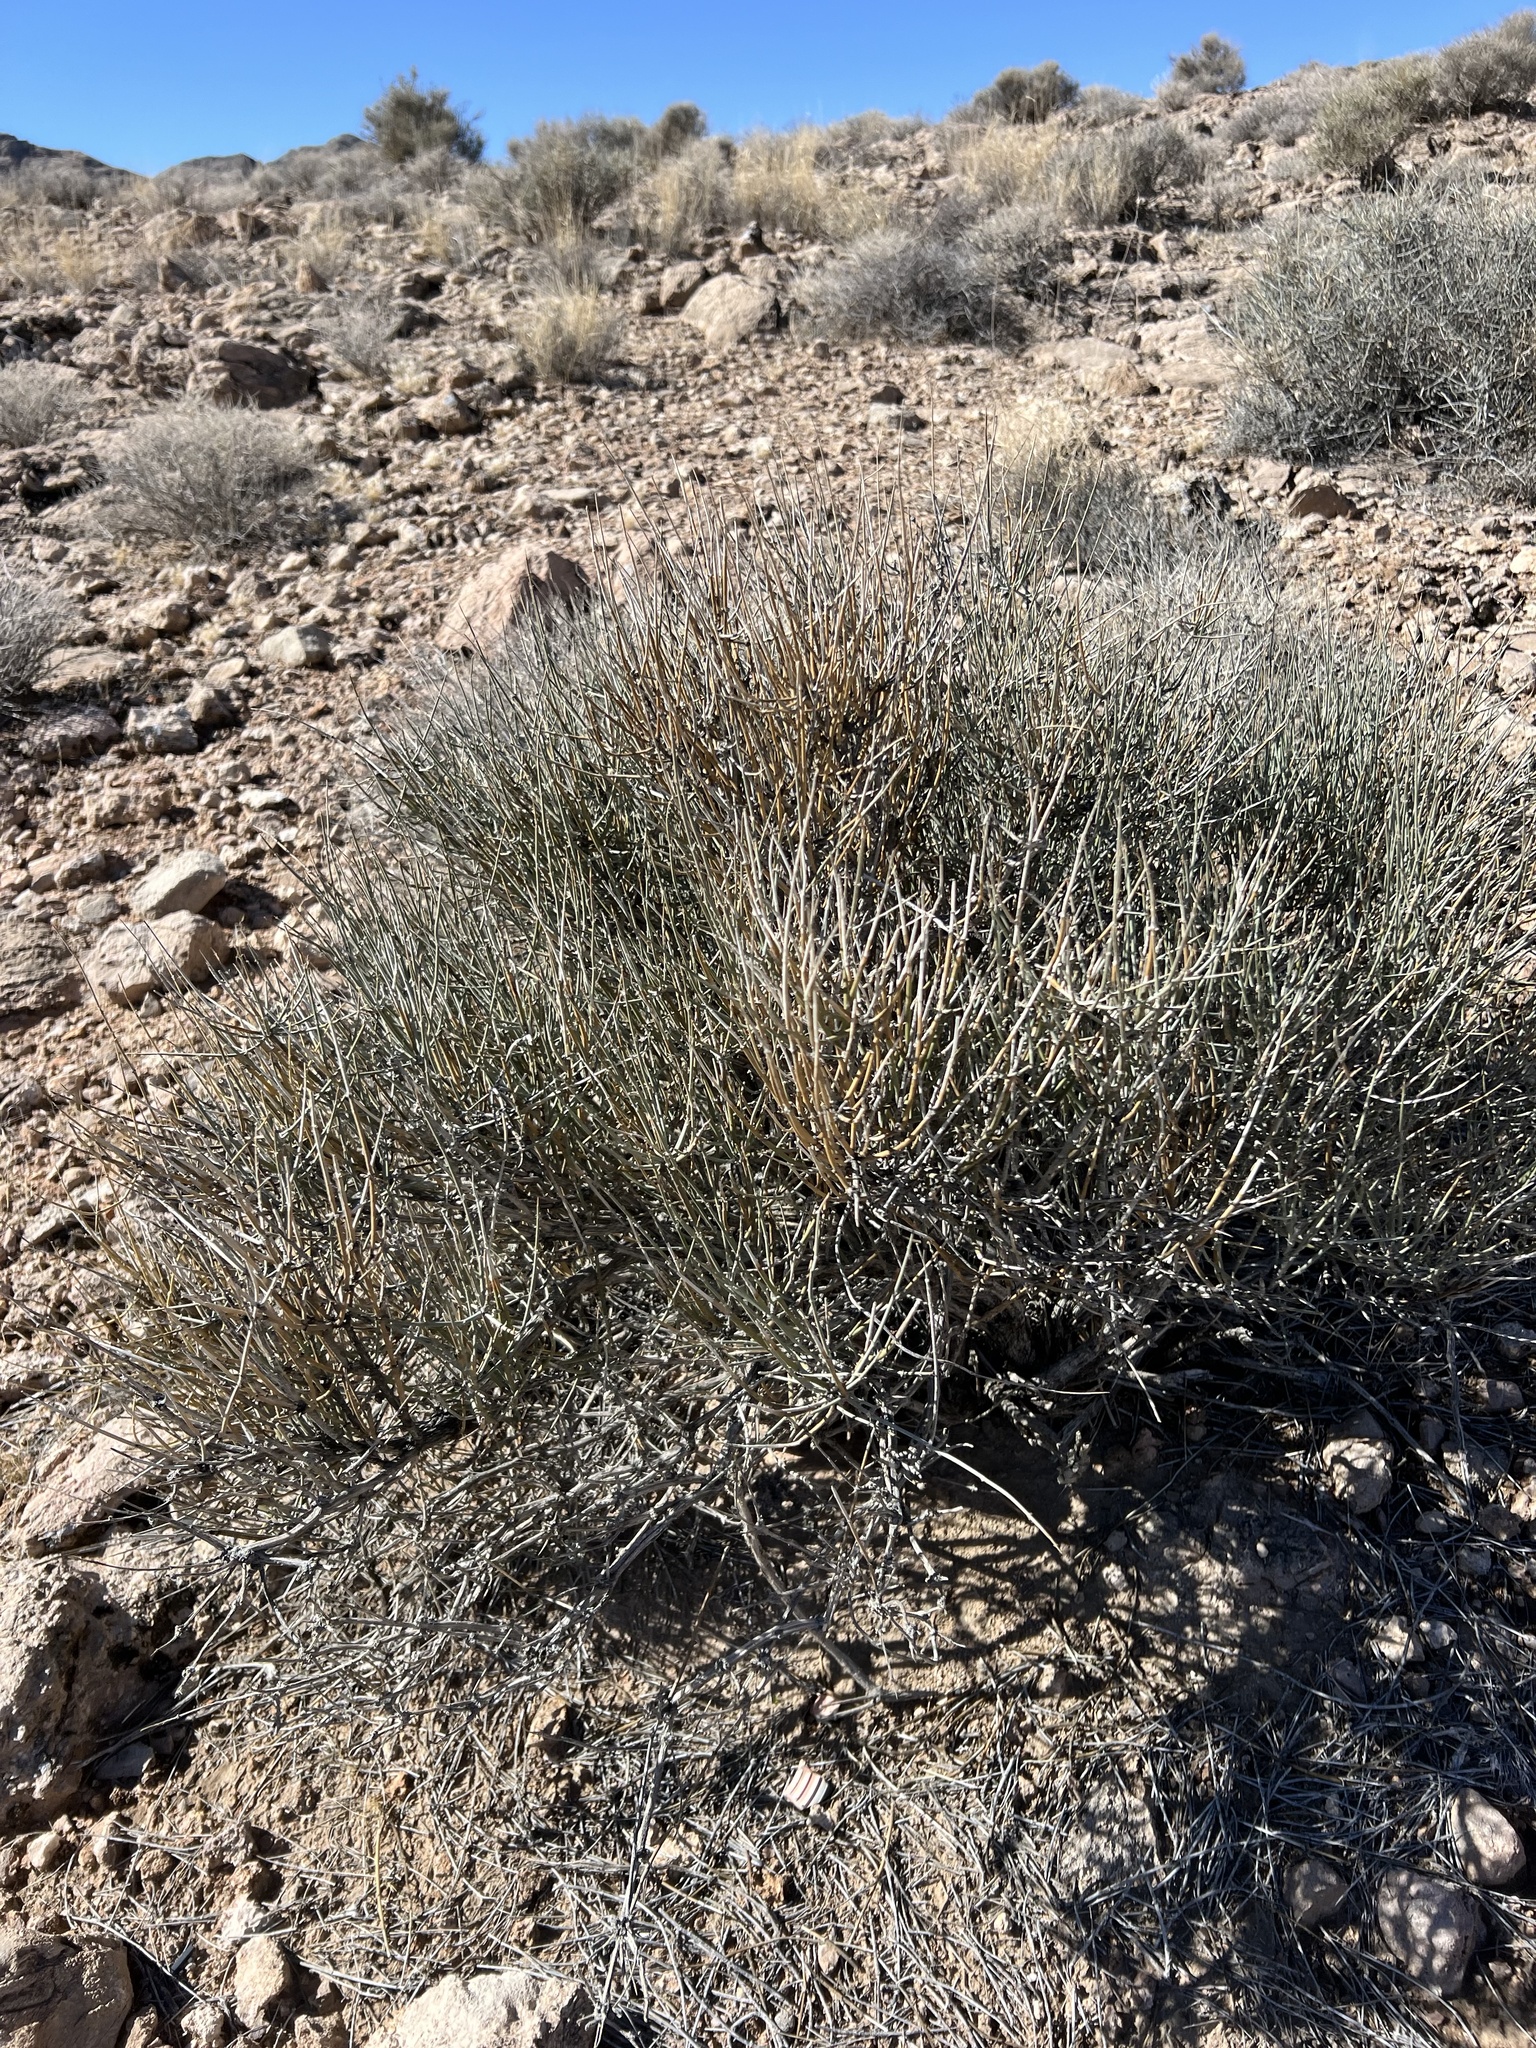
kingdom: Plantae
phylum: Tracheophyta
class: Gnetopsida
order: Ephedrales
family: Ephedraceae
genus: Ephedra
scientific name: Ephedra nevadensis
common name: Gray ephedra
